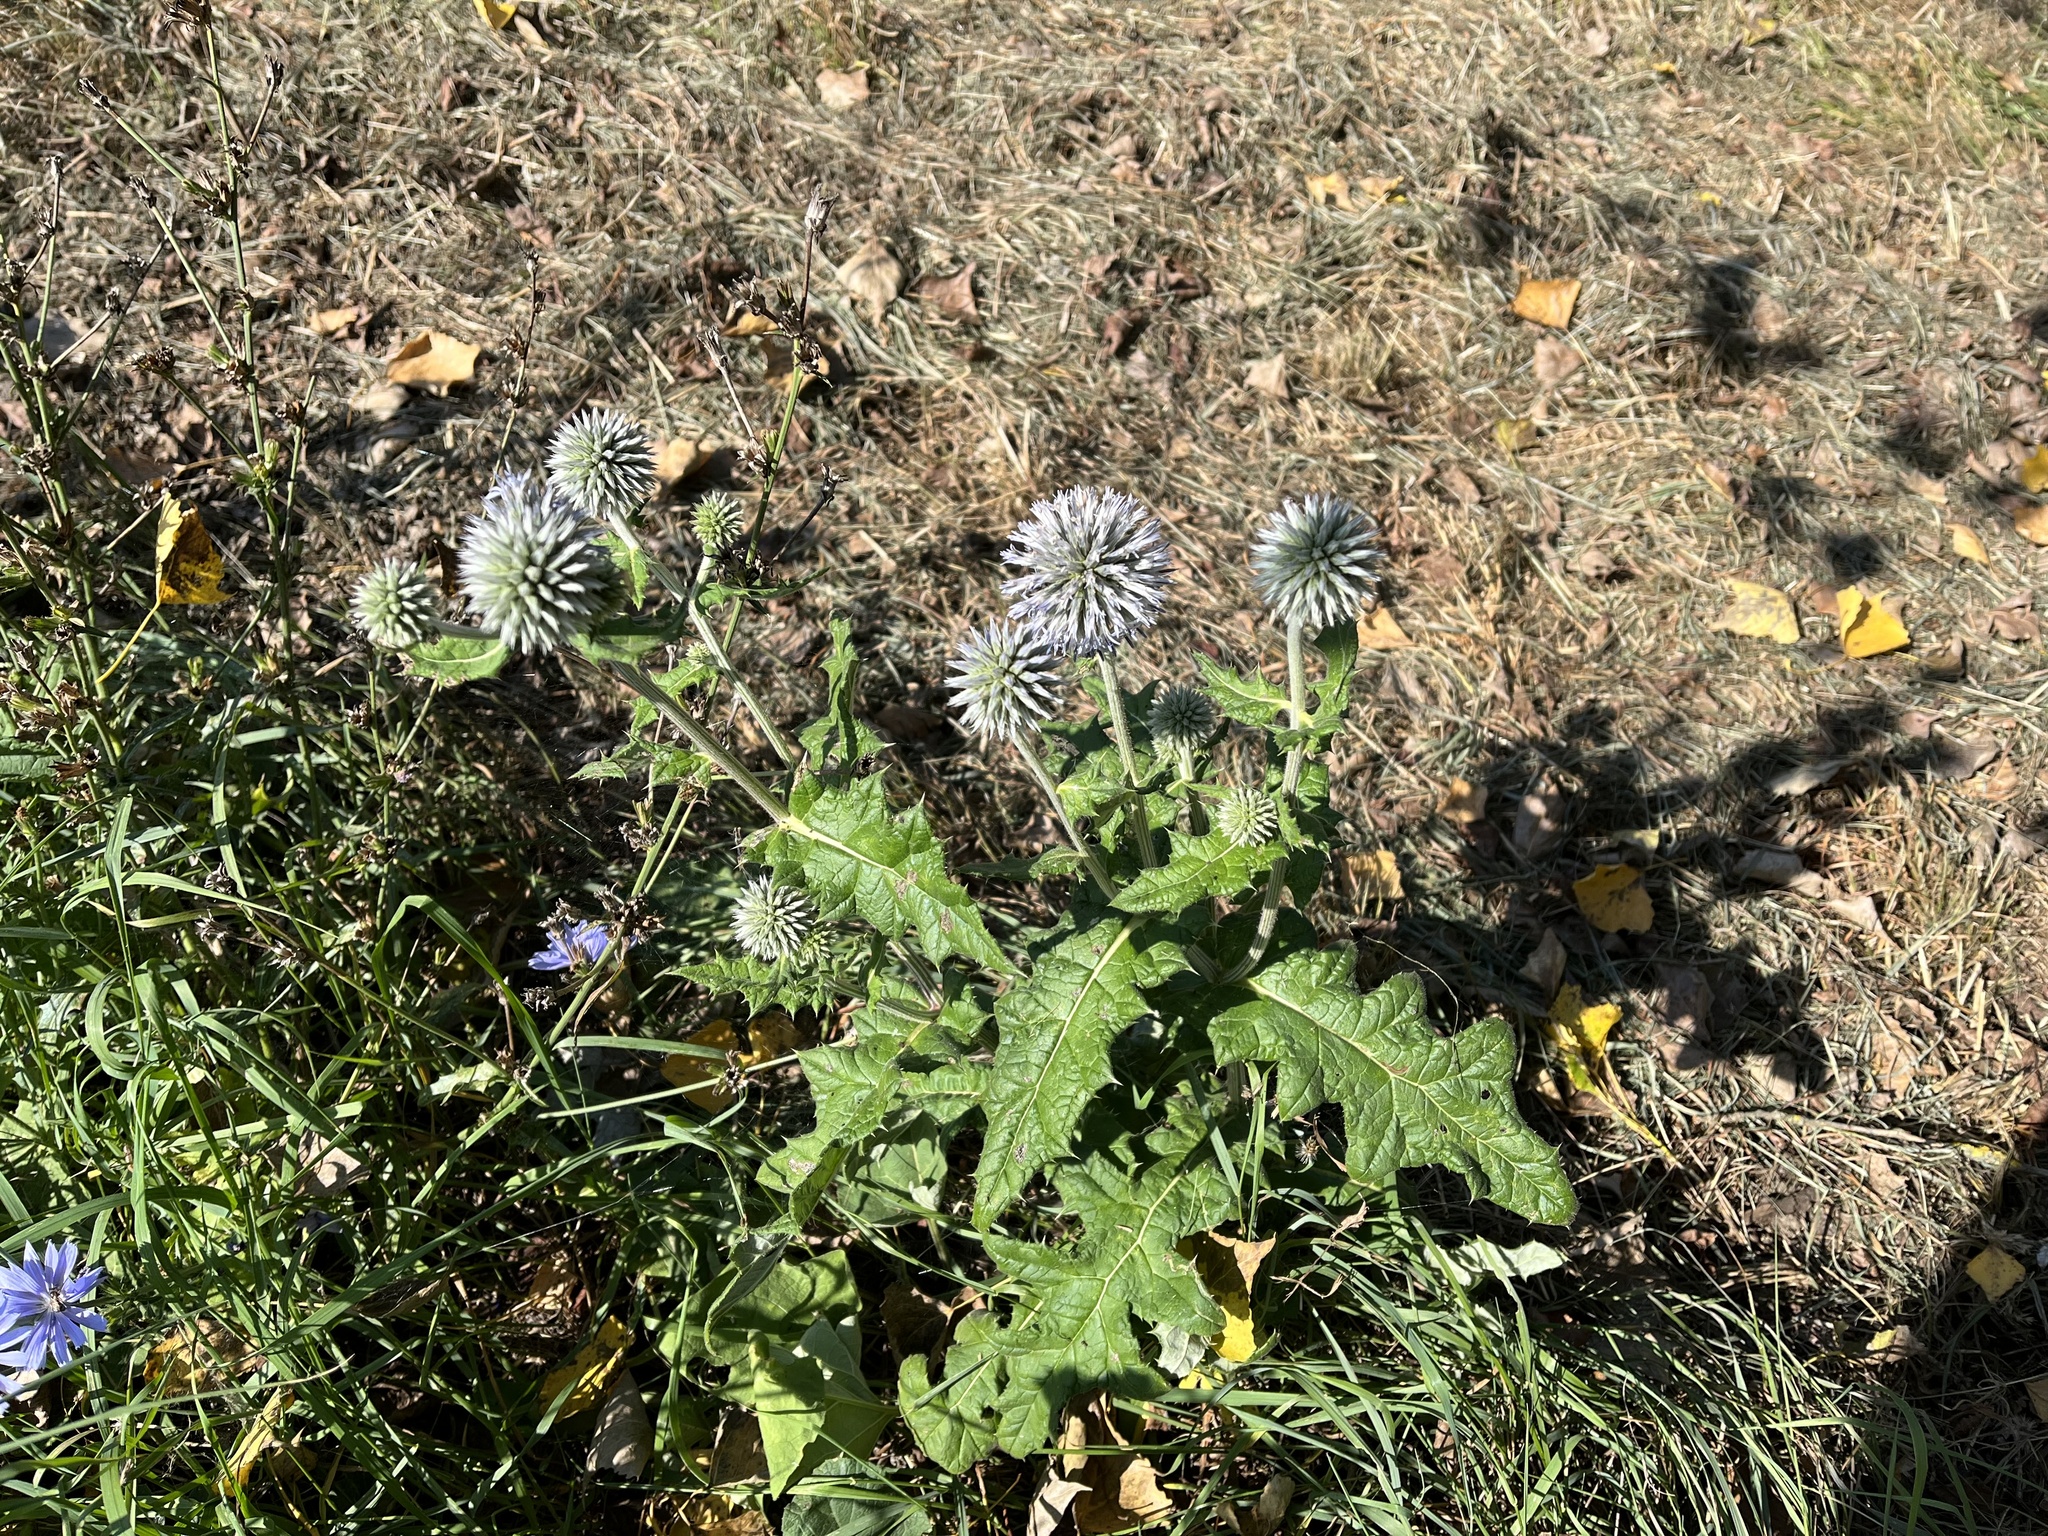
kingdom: Plantae
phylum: Tracheophyta
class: Magnoliopsida
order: Asterales
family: Asteraceae
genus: Echinops
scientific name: Echinops sphaerocephalus
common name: Glandular globe-thistle
